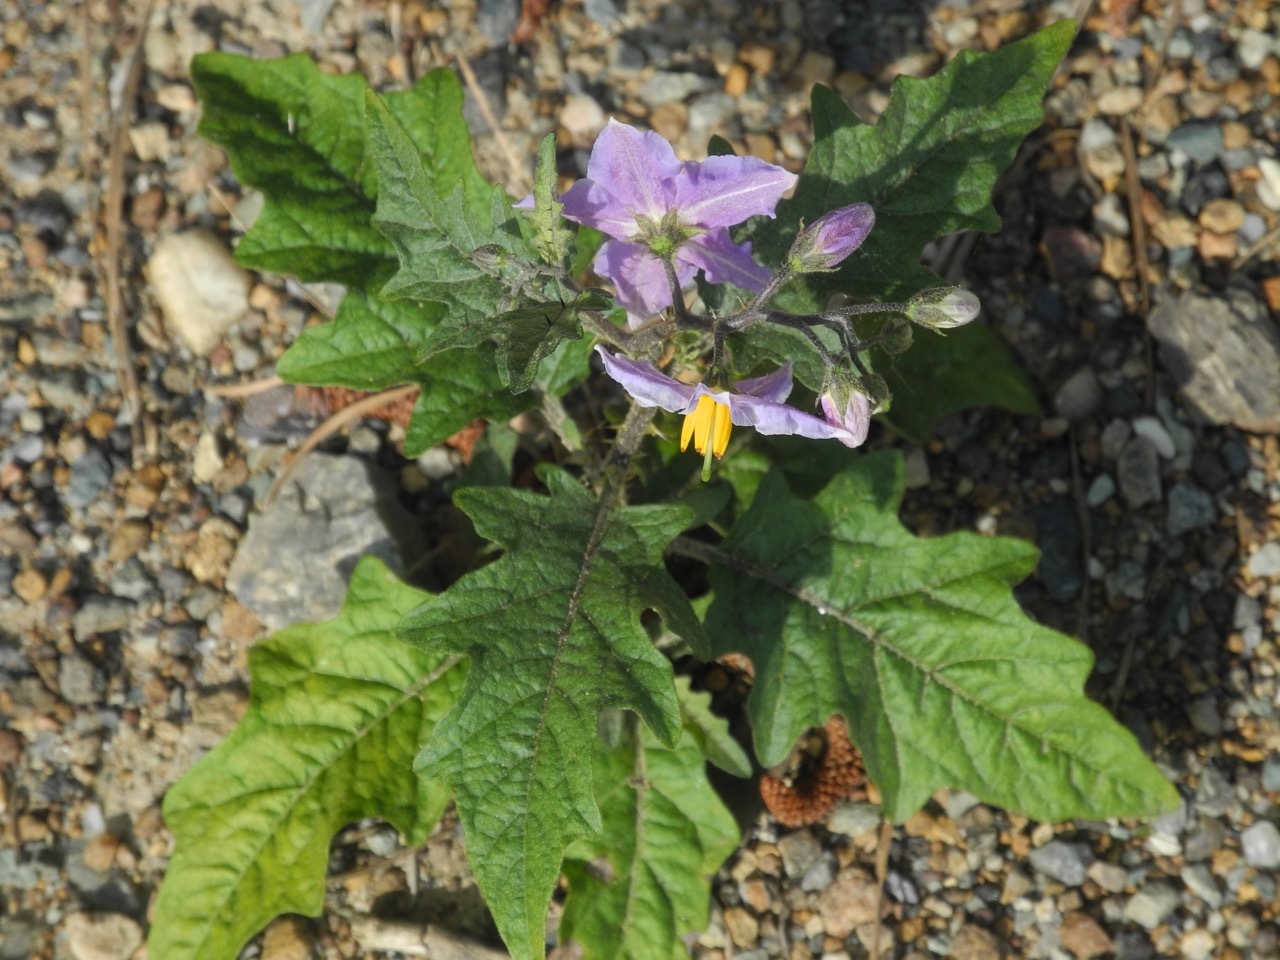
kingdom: Plantae
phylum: Tracheophyta
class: Magnoliopsida
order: Solanales
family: Solanaceae
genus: Solanum
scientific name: Solanum carolinense
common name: Horse-nettle
